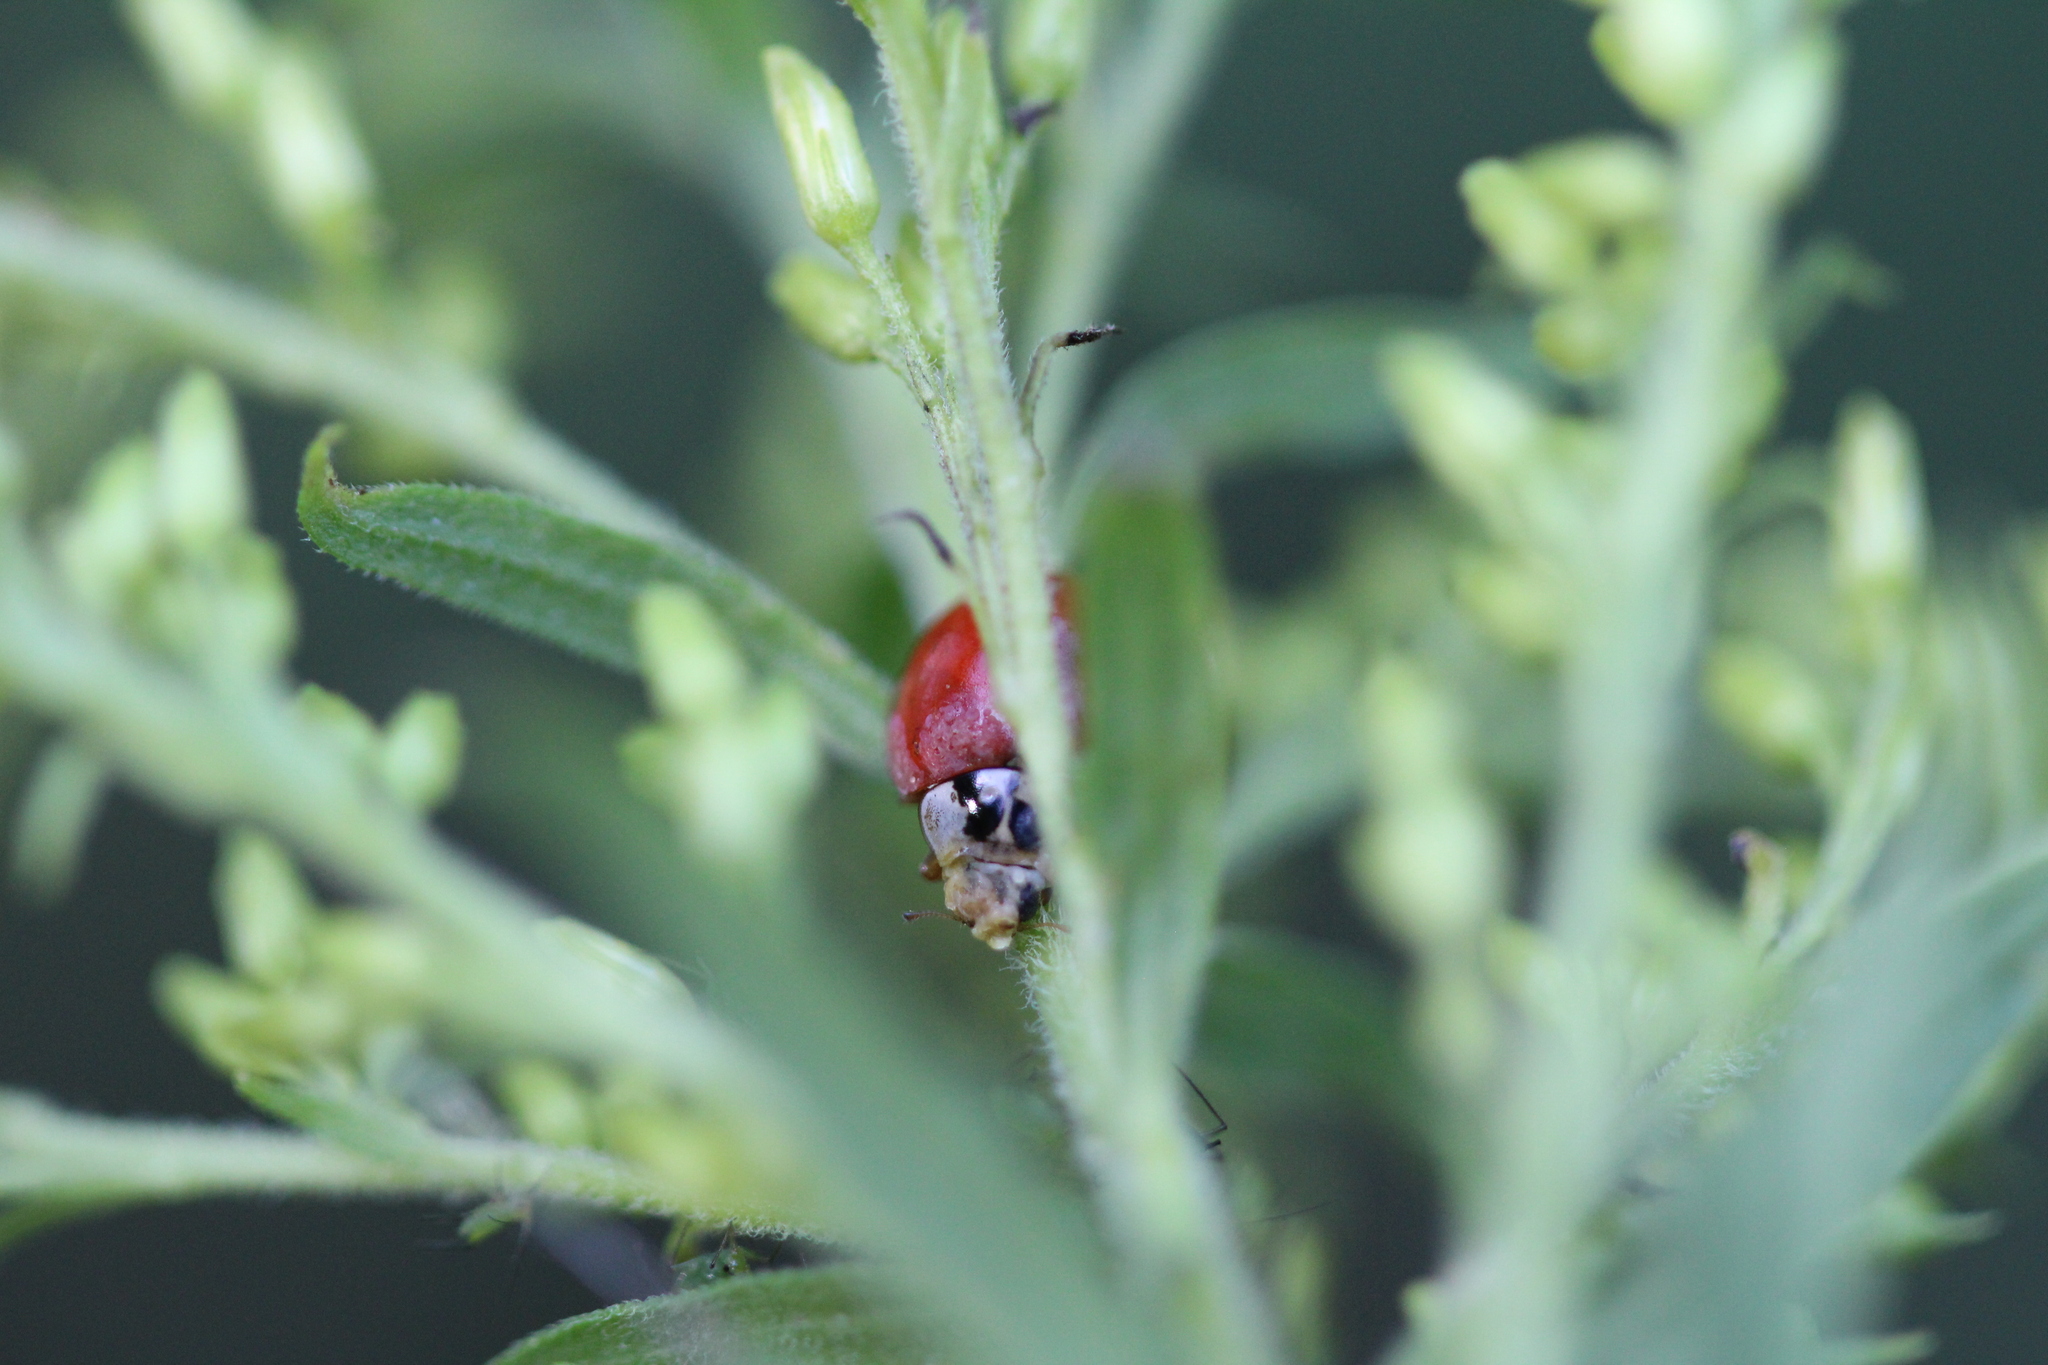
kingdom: Animalia
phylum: Arthropoda
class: Insecta
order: Coleoptera
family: Coccinellidae
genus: Harmonia
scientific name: Harmonia axyridis
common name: Harlequin ladybird
